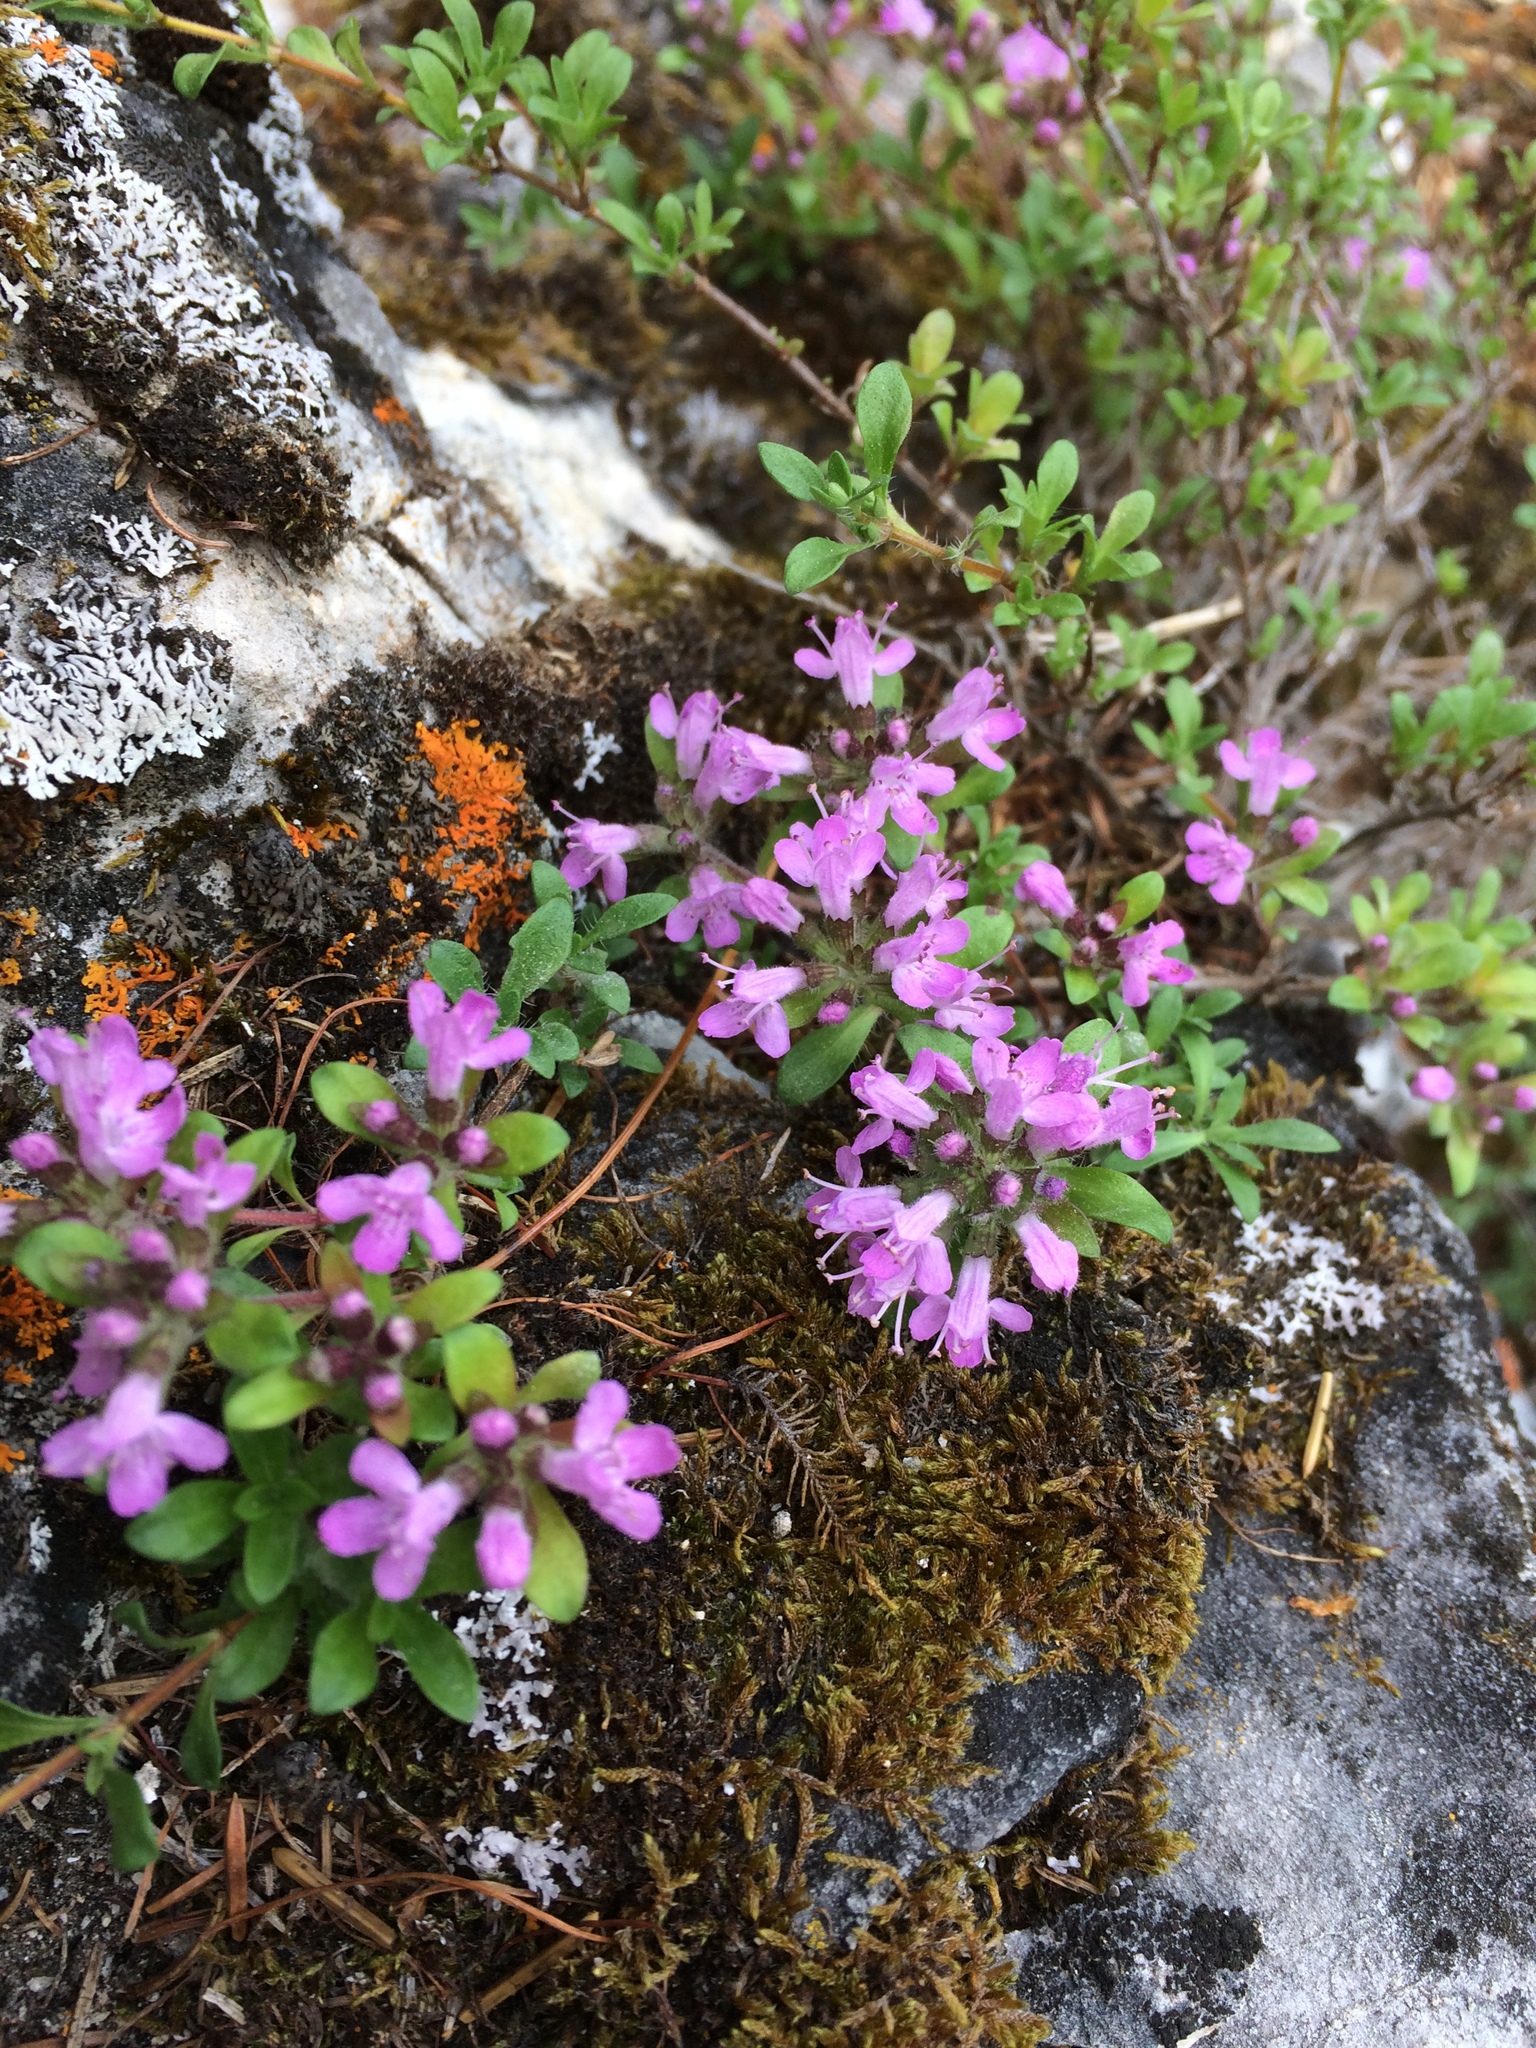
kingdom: Plantae
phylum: Tracheophyta
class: Magnoliopsida
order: Lamiales
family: Lamiaceae
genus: Thymus
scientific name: Thymus talijevii
